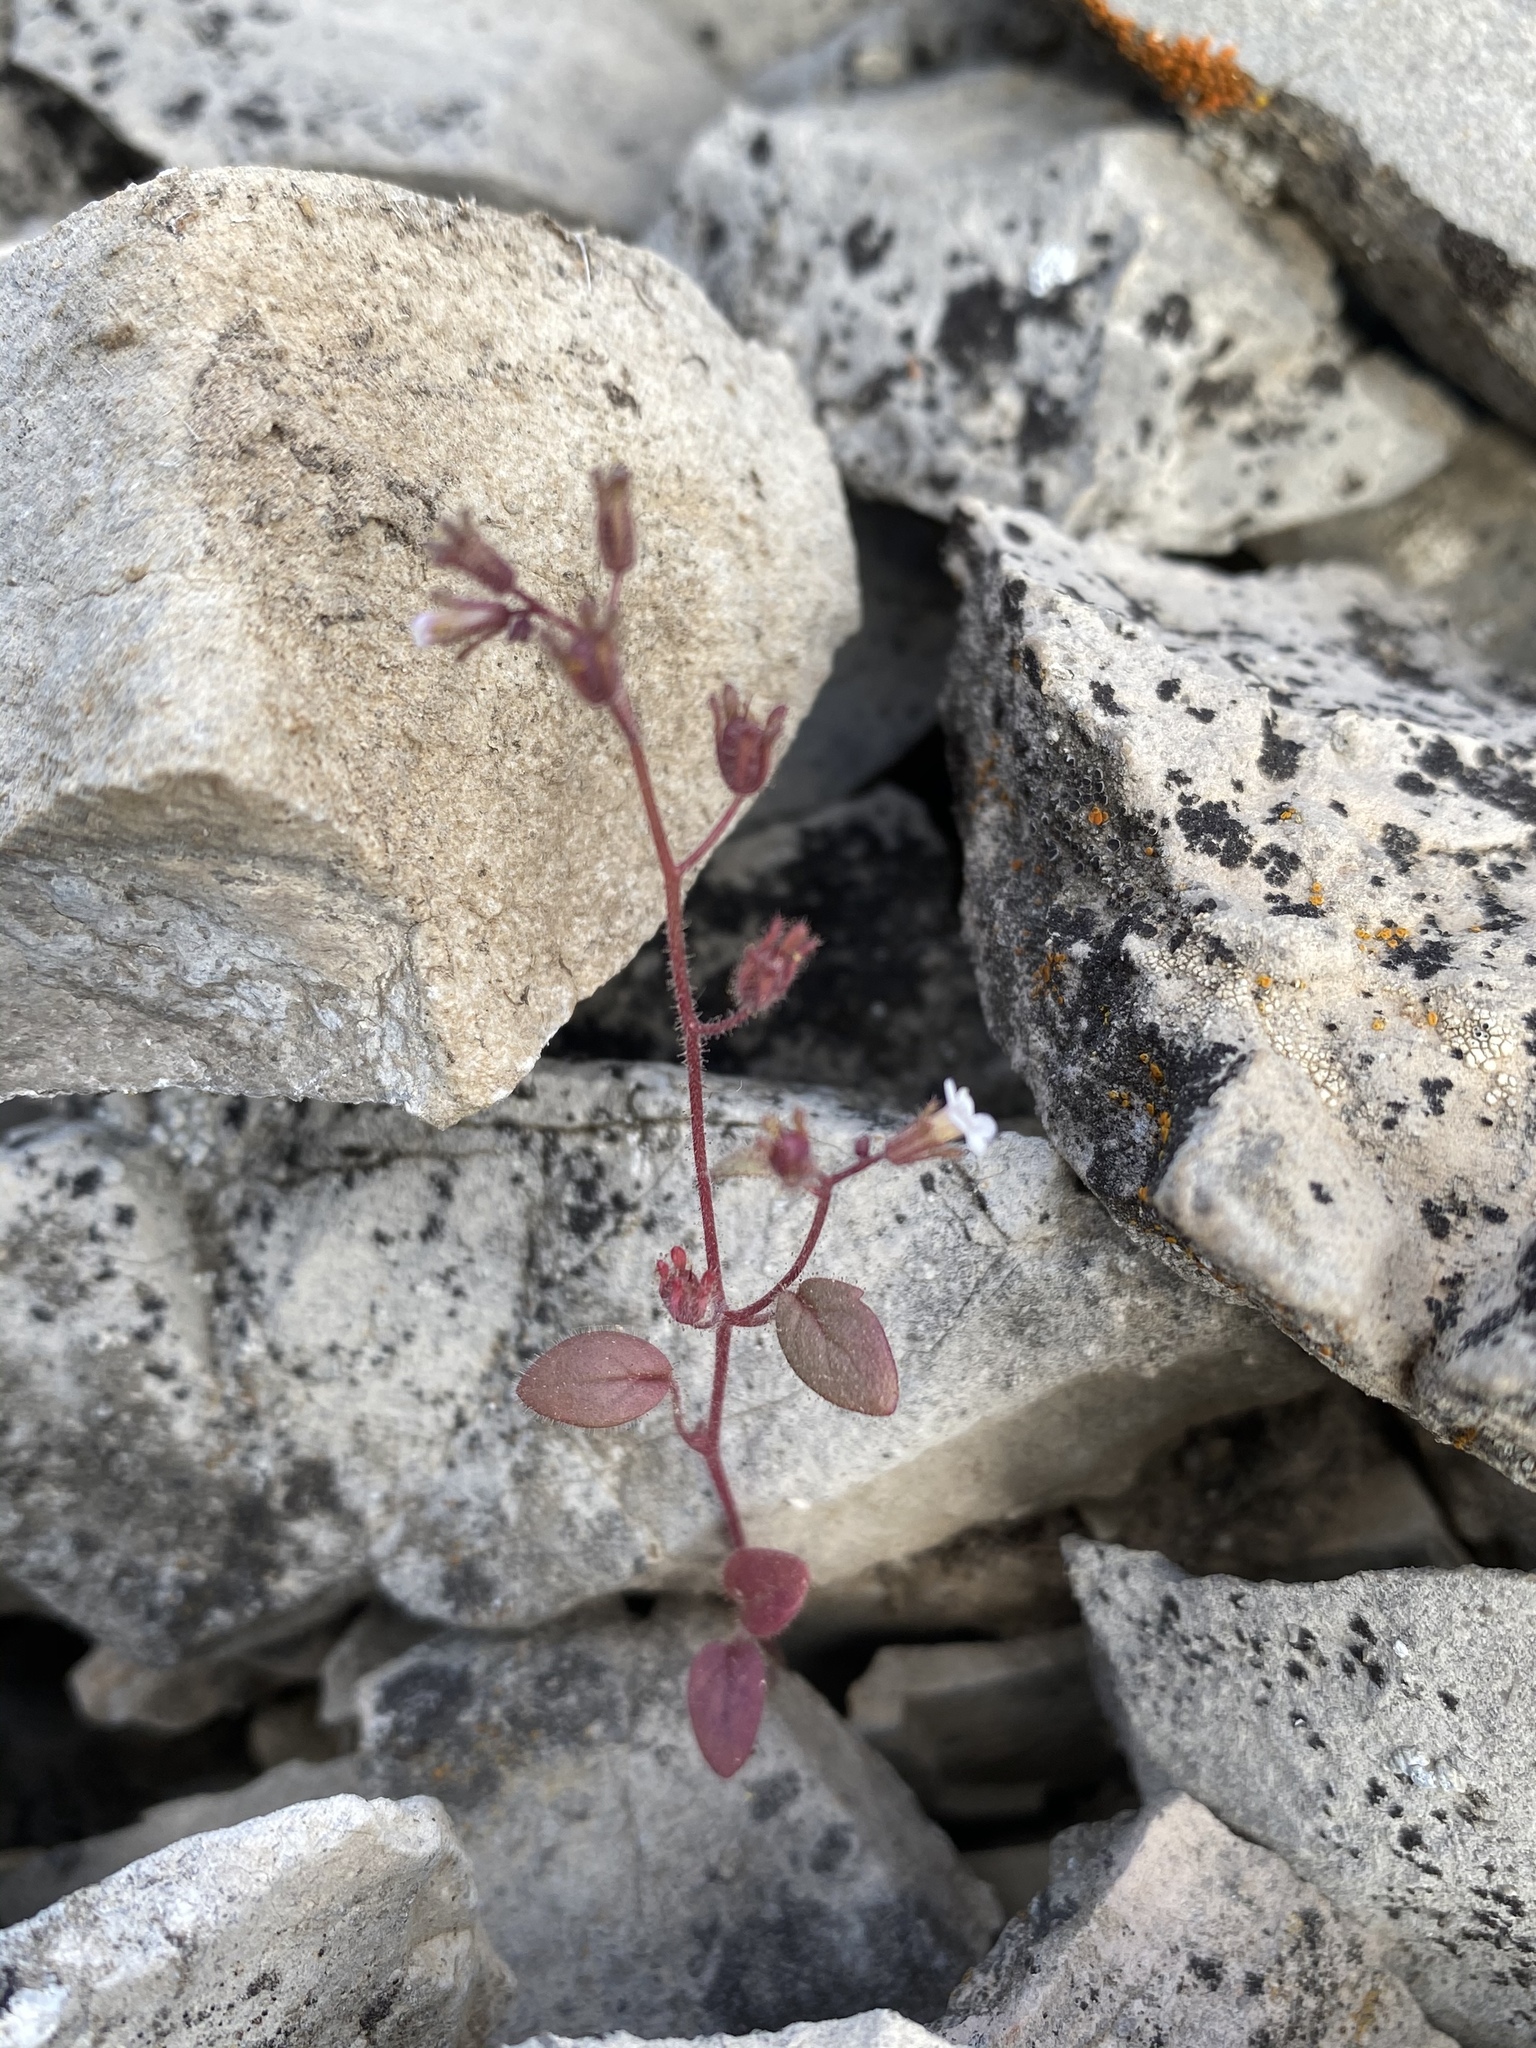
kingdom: Plantae
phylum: Tracheophyta
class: Magnoliopsida
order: Boraginales
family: Hydrophyllaceae
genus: Phacelia
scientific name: Phacelia barnebyana
